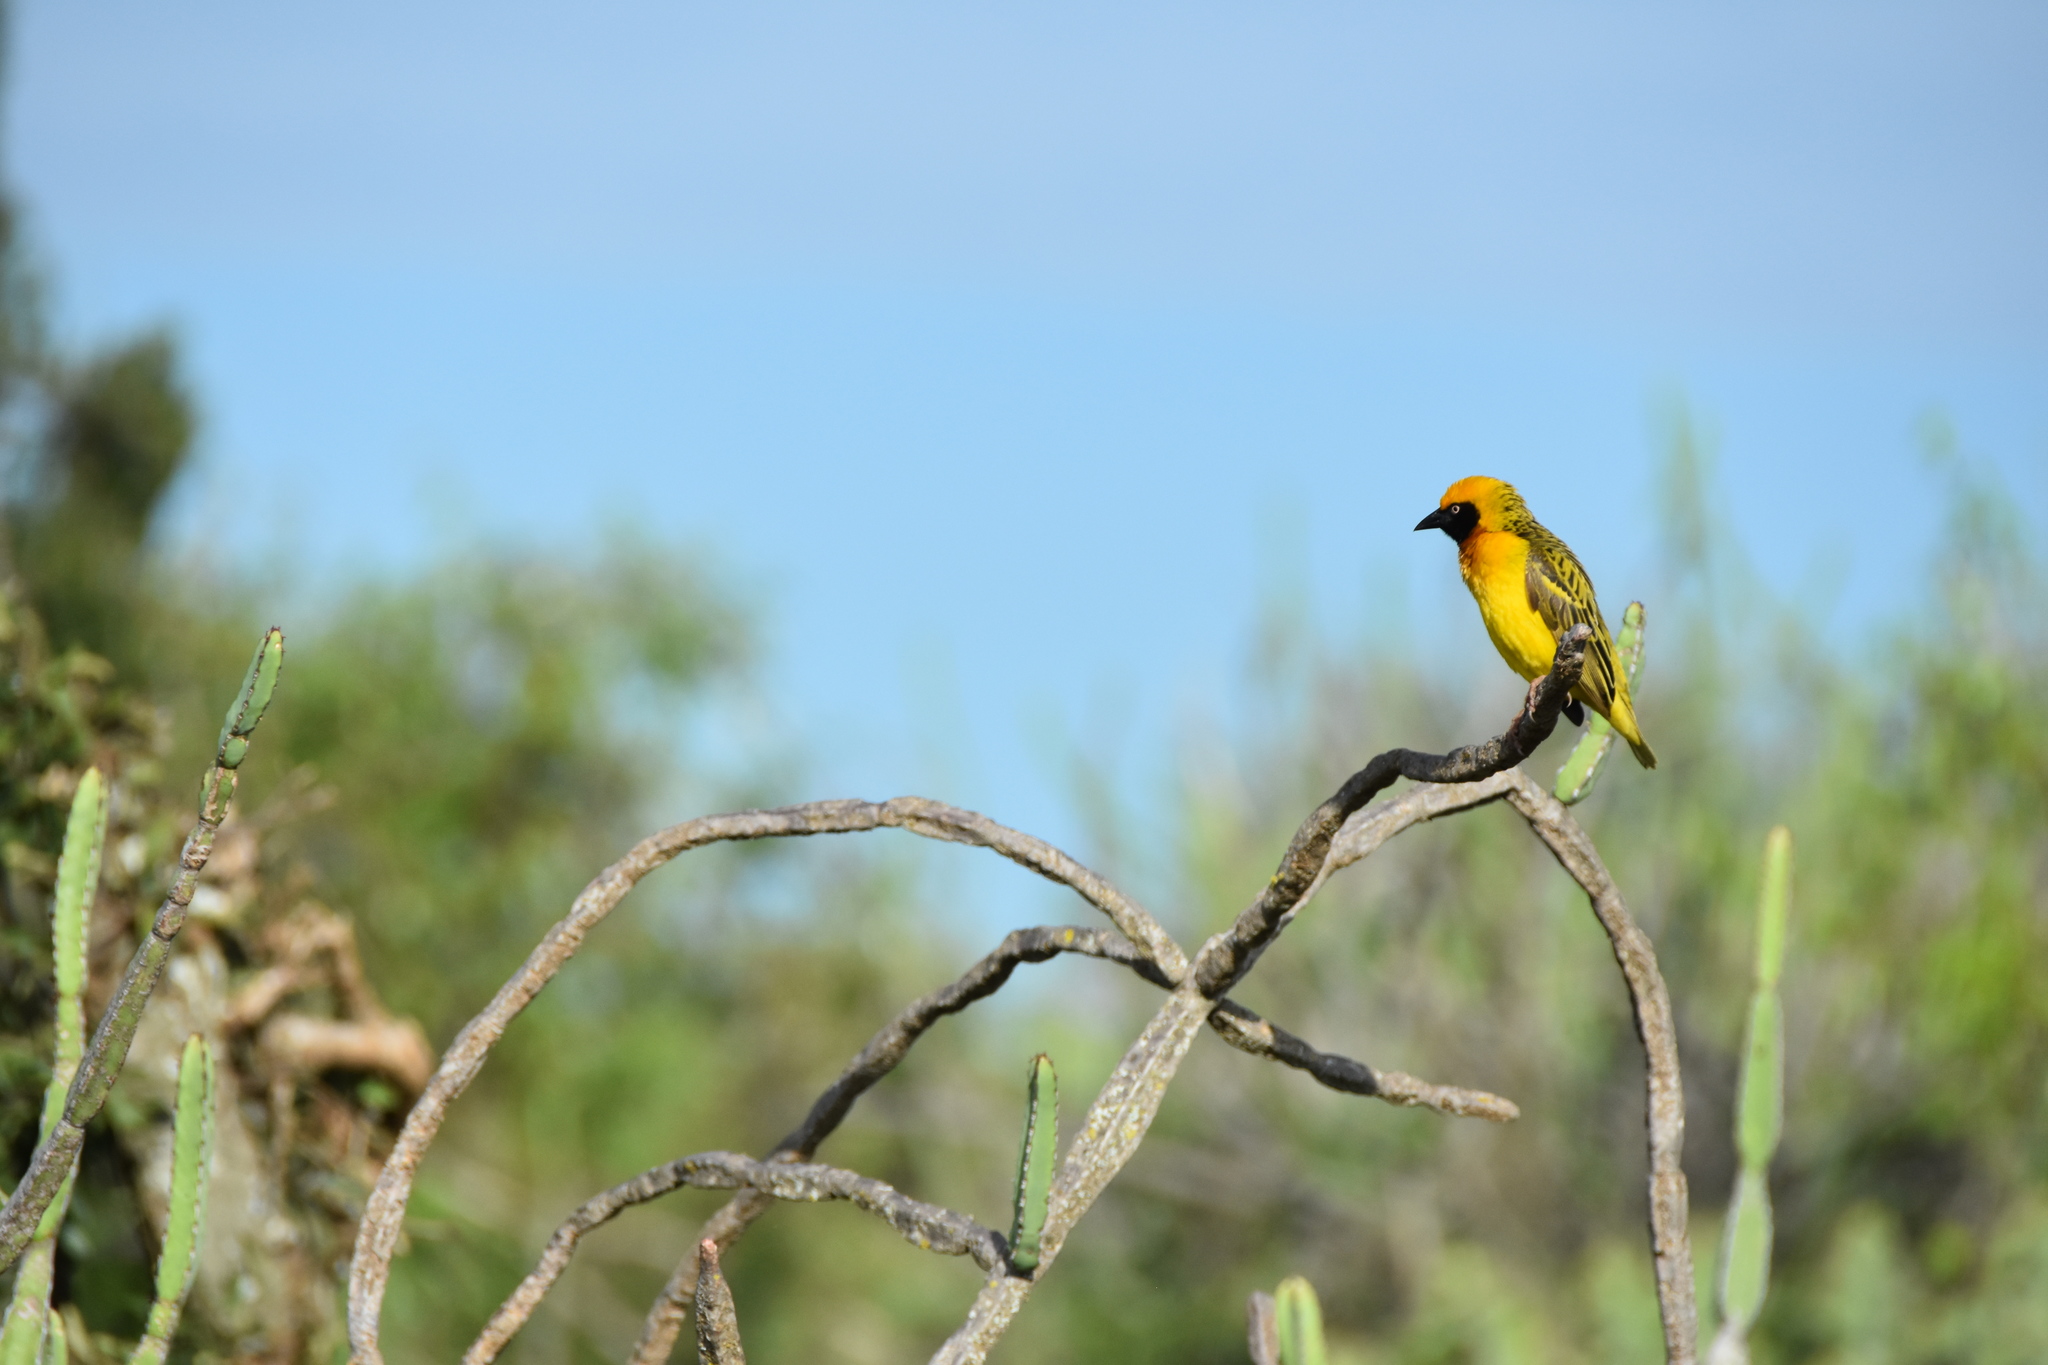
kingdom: Animalia
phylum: Chordata
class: Aves
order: Passeriformes
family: Ploceidae
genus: Ploceus
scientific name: Ploceus spekei
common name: Speke's weaver
